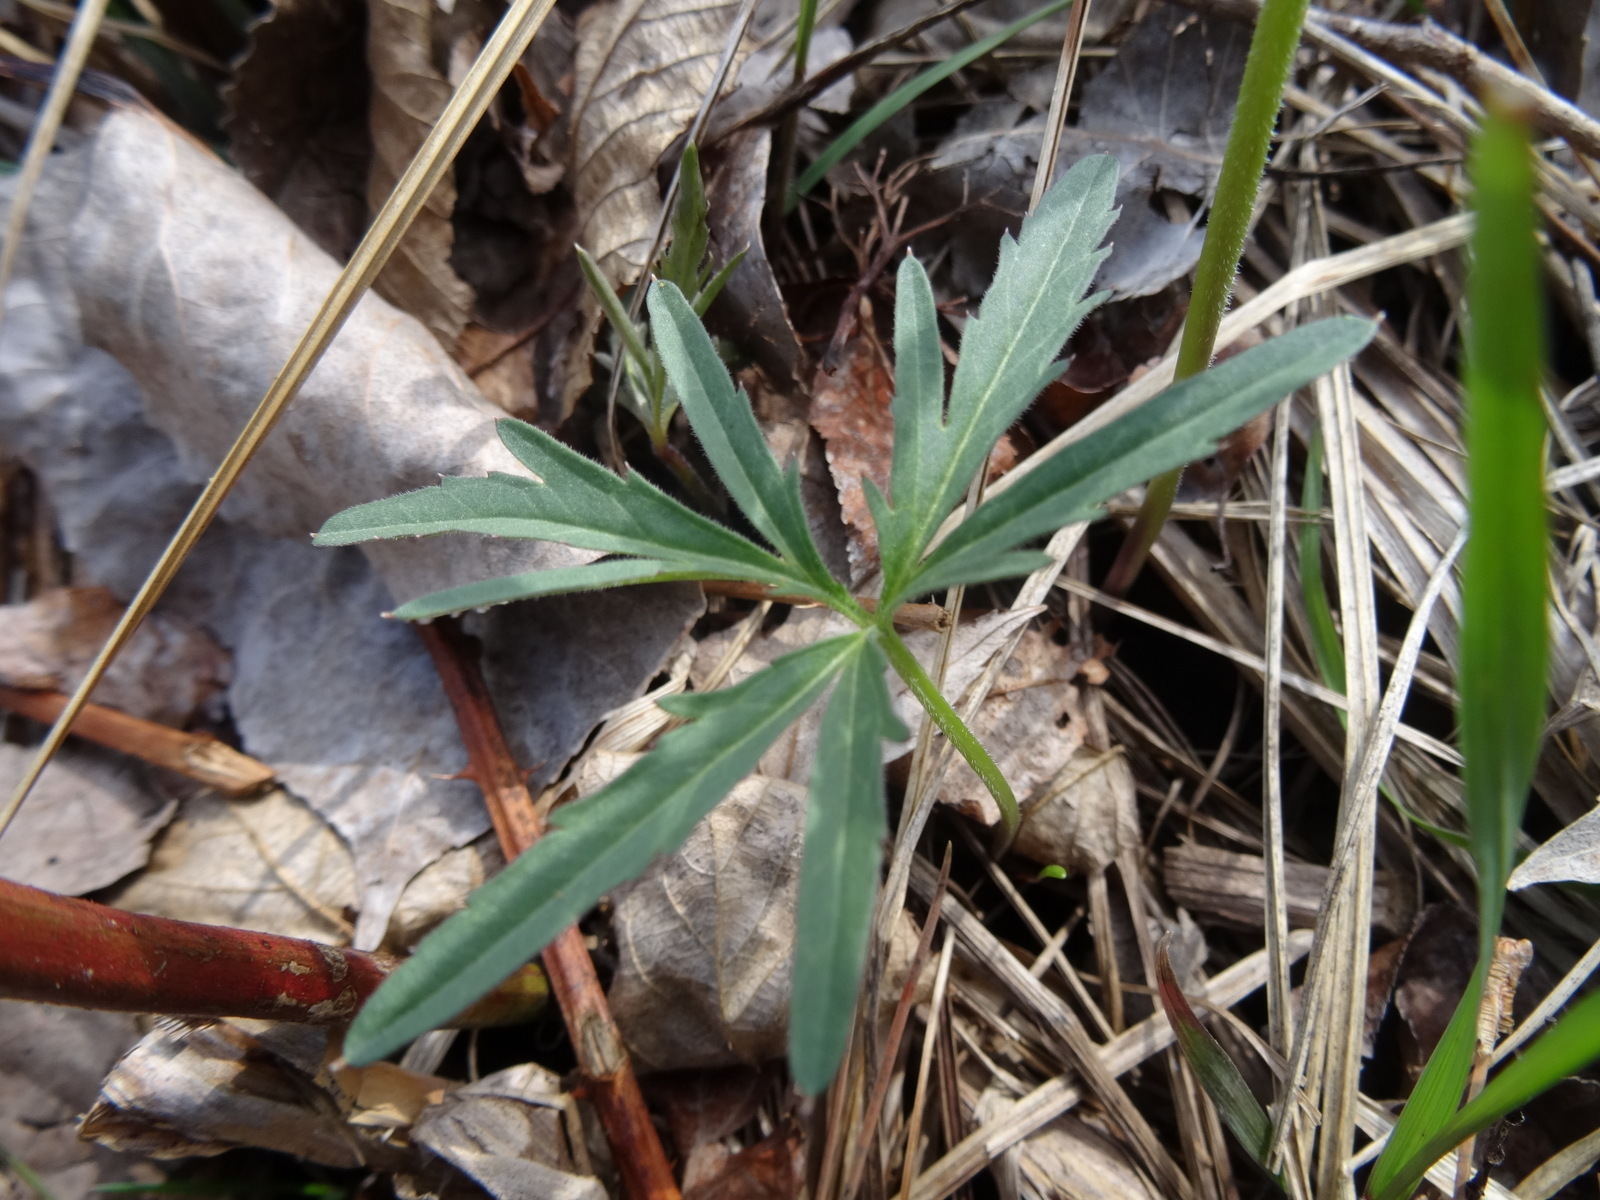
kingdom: Plantae
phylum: Tracheophyta
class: Magnoliopsida
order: Brassicales
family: Brassicaceae
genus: Cardamine
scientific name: Cardamine concatenata
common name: Cut-leaf toothcup
